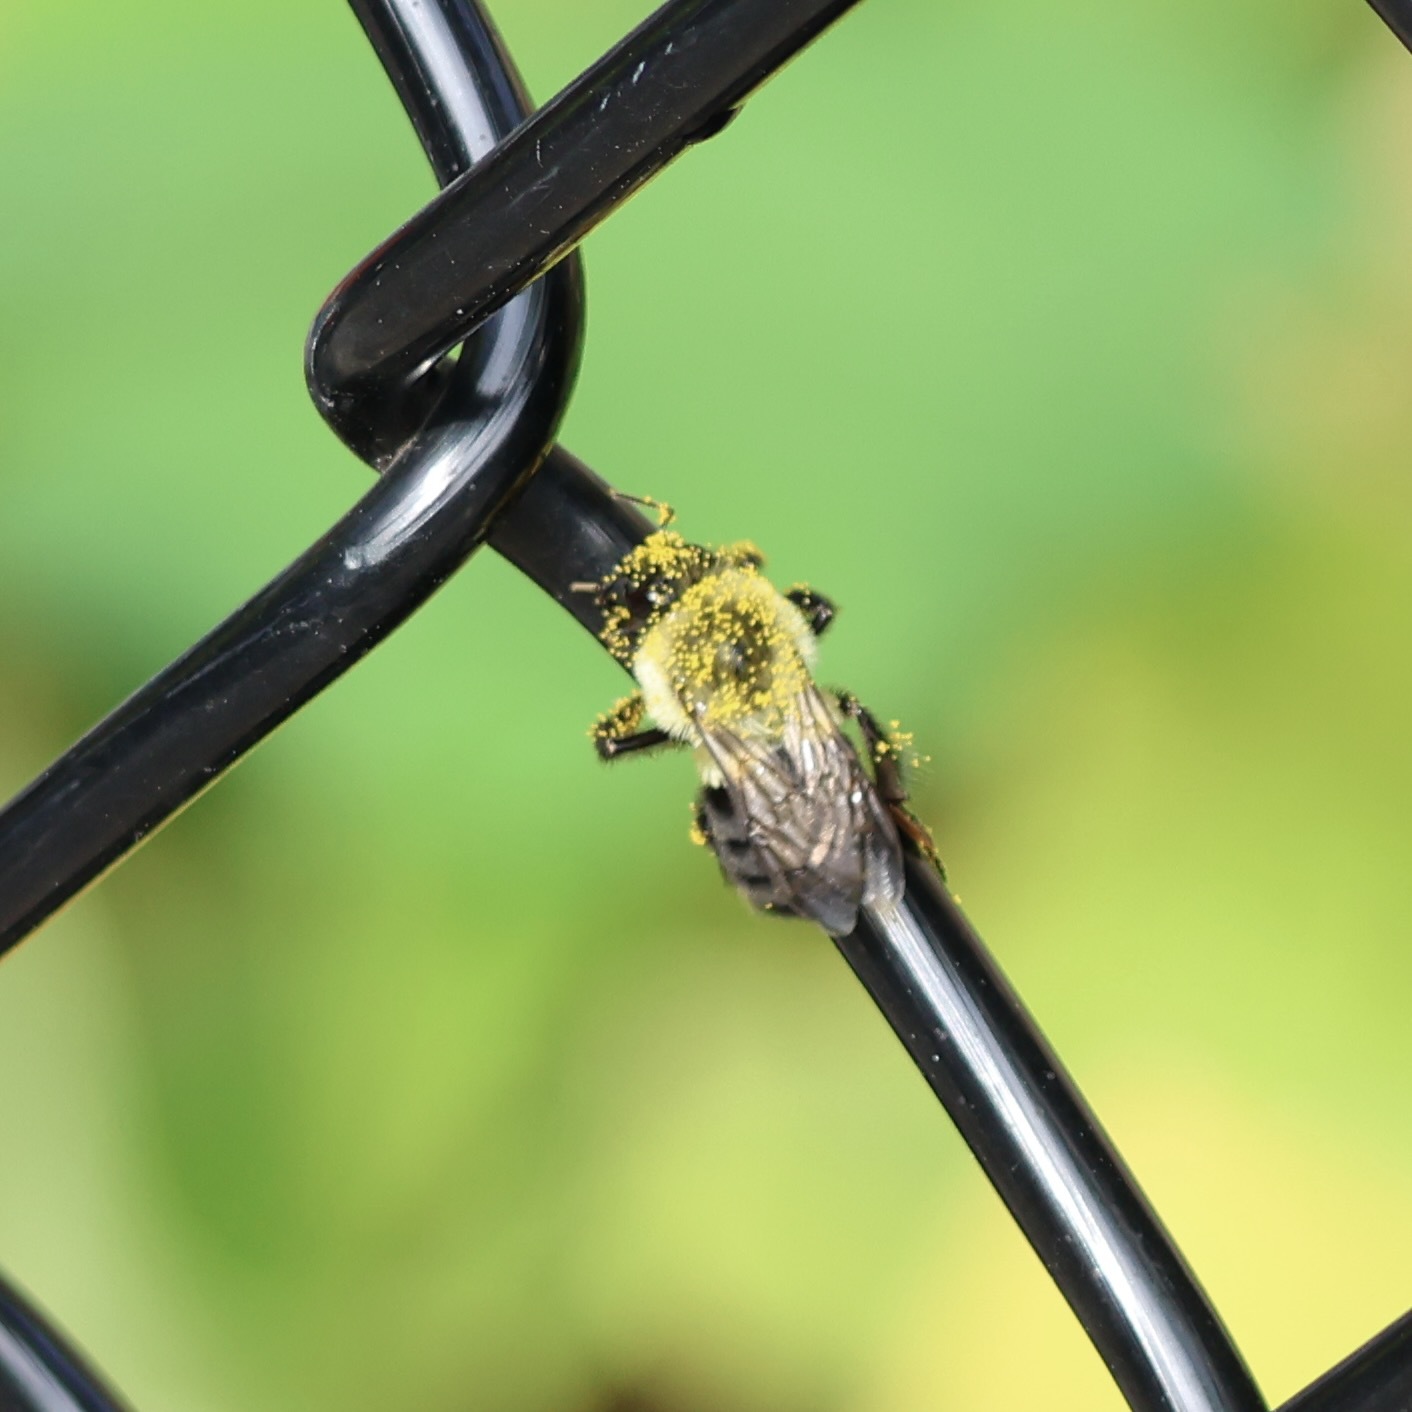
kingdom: Animalia
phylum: Arthropoda
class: Insecta
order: Hymenoptera
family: Apidae
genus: Bombus
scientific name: Bombus impatiens
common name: Common eastern bumble bee
